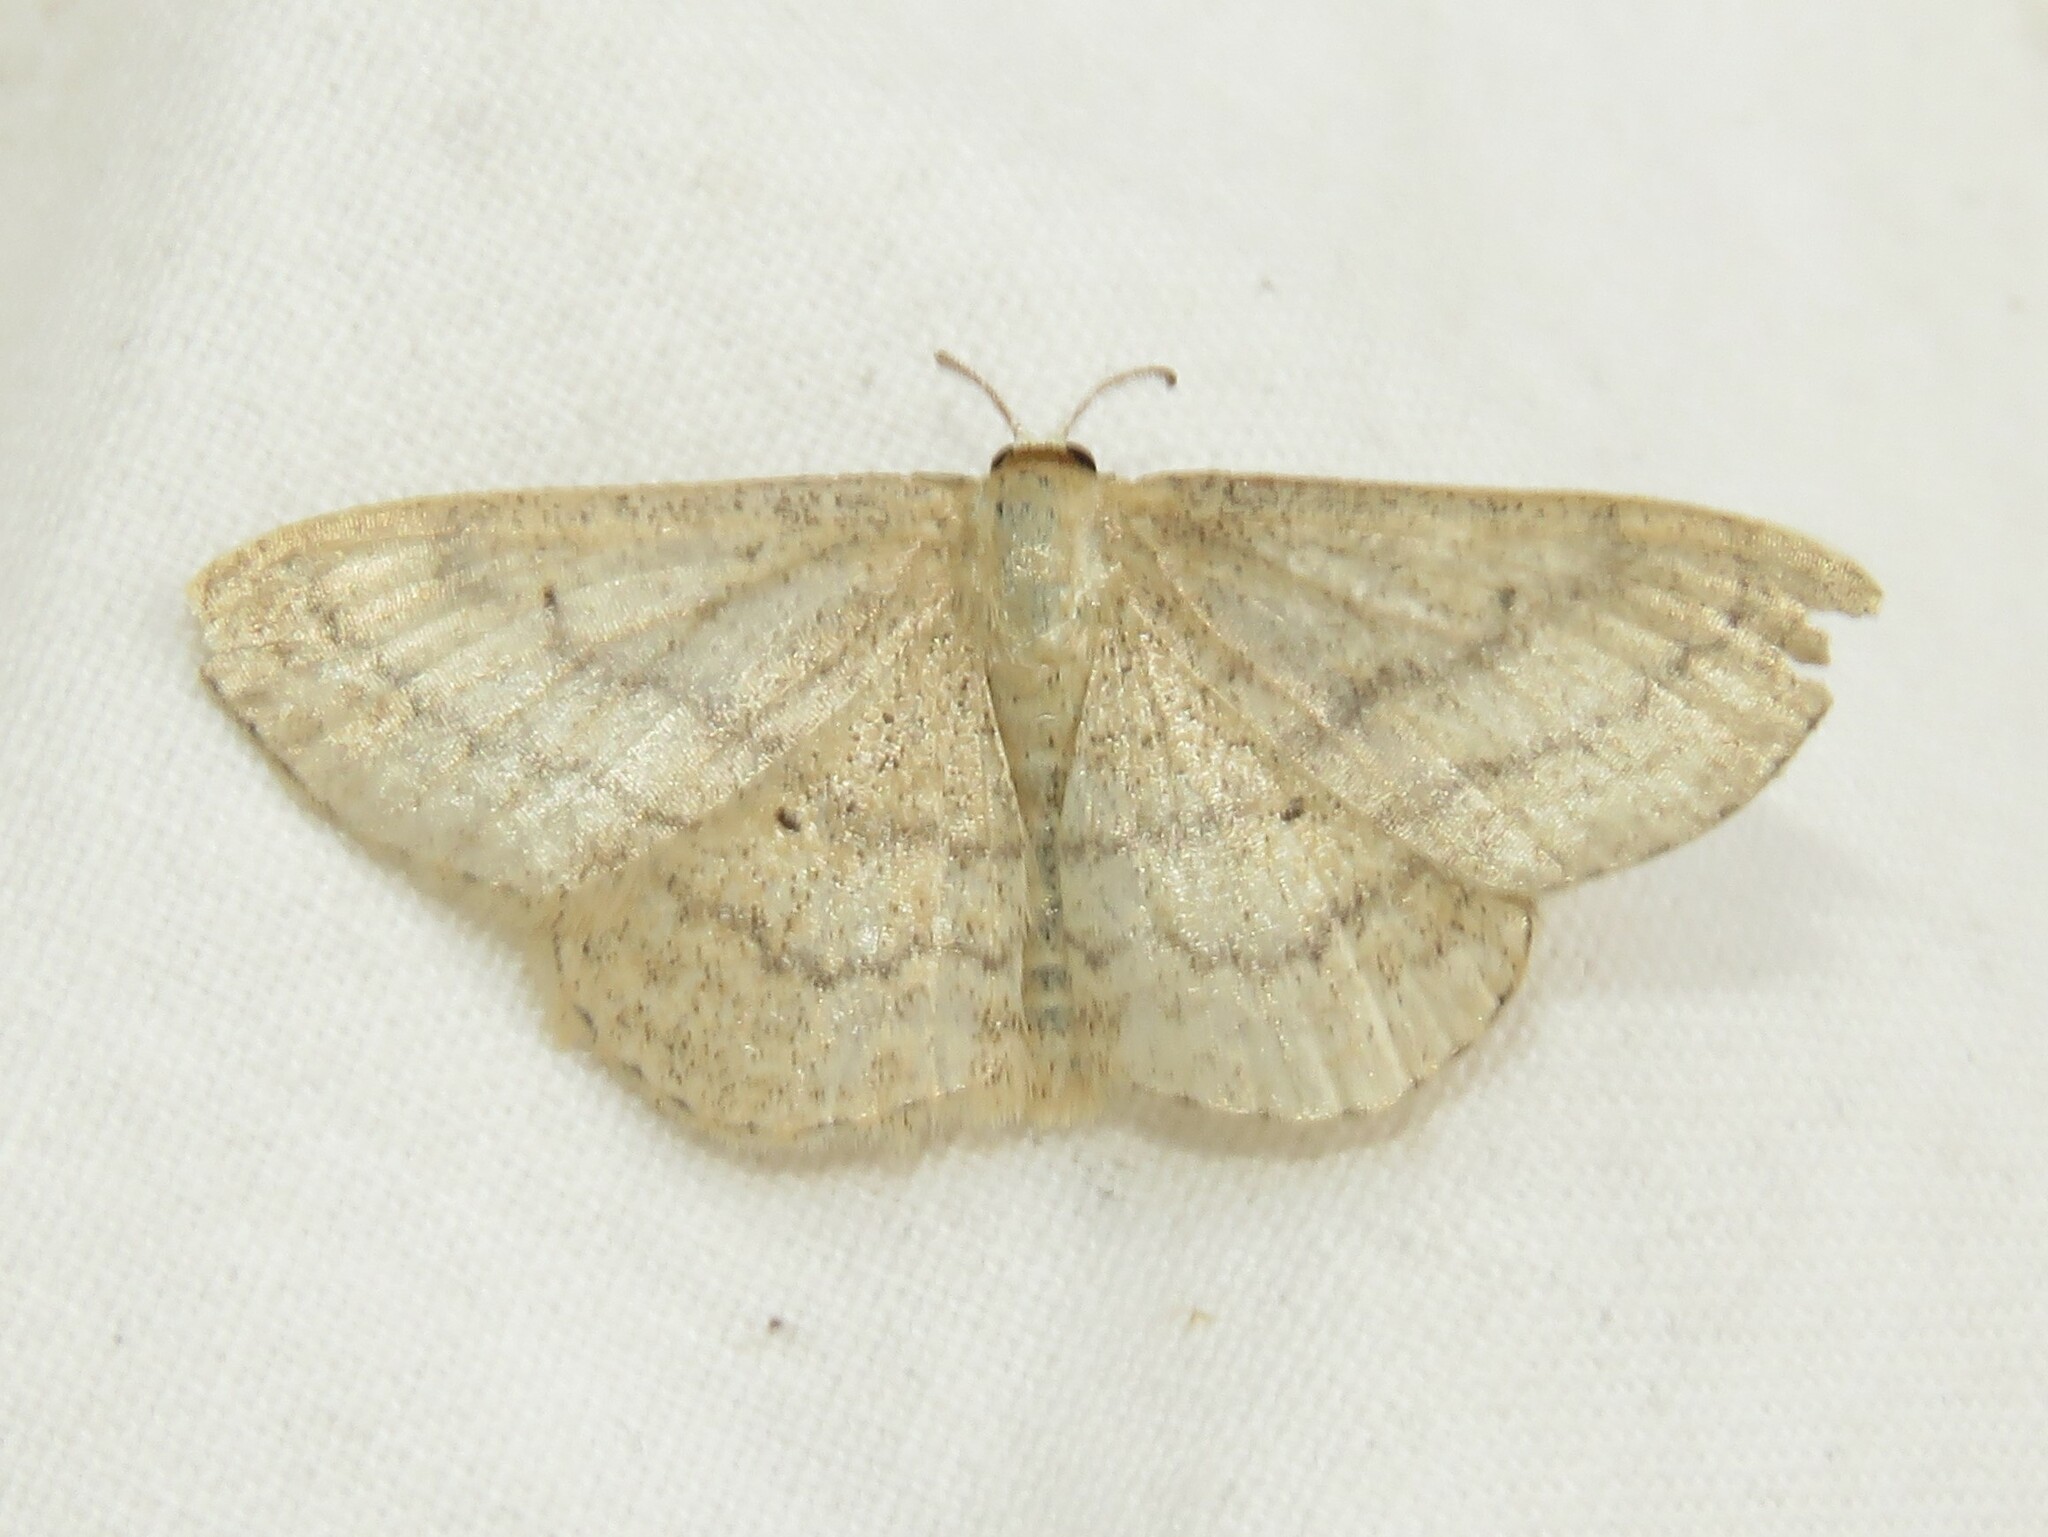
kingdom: Animalia
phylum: Arthropoda
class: Insecta
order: Lepidoptera
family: Geometridae
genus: Scopula
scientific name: Scopula inductata
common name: Soft-lined wave
